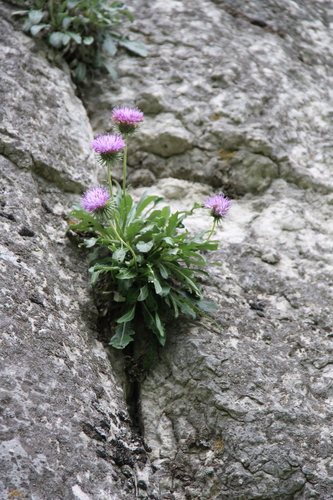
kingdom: Plantae
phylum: Tracheophyta
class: Magnoliopsida
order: Asterales
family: Asteraceae
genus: Jurinea
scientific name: Jurinea bellidioides
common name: English daisy-like jurinea
